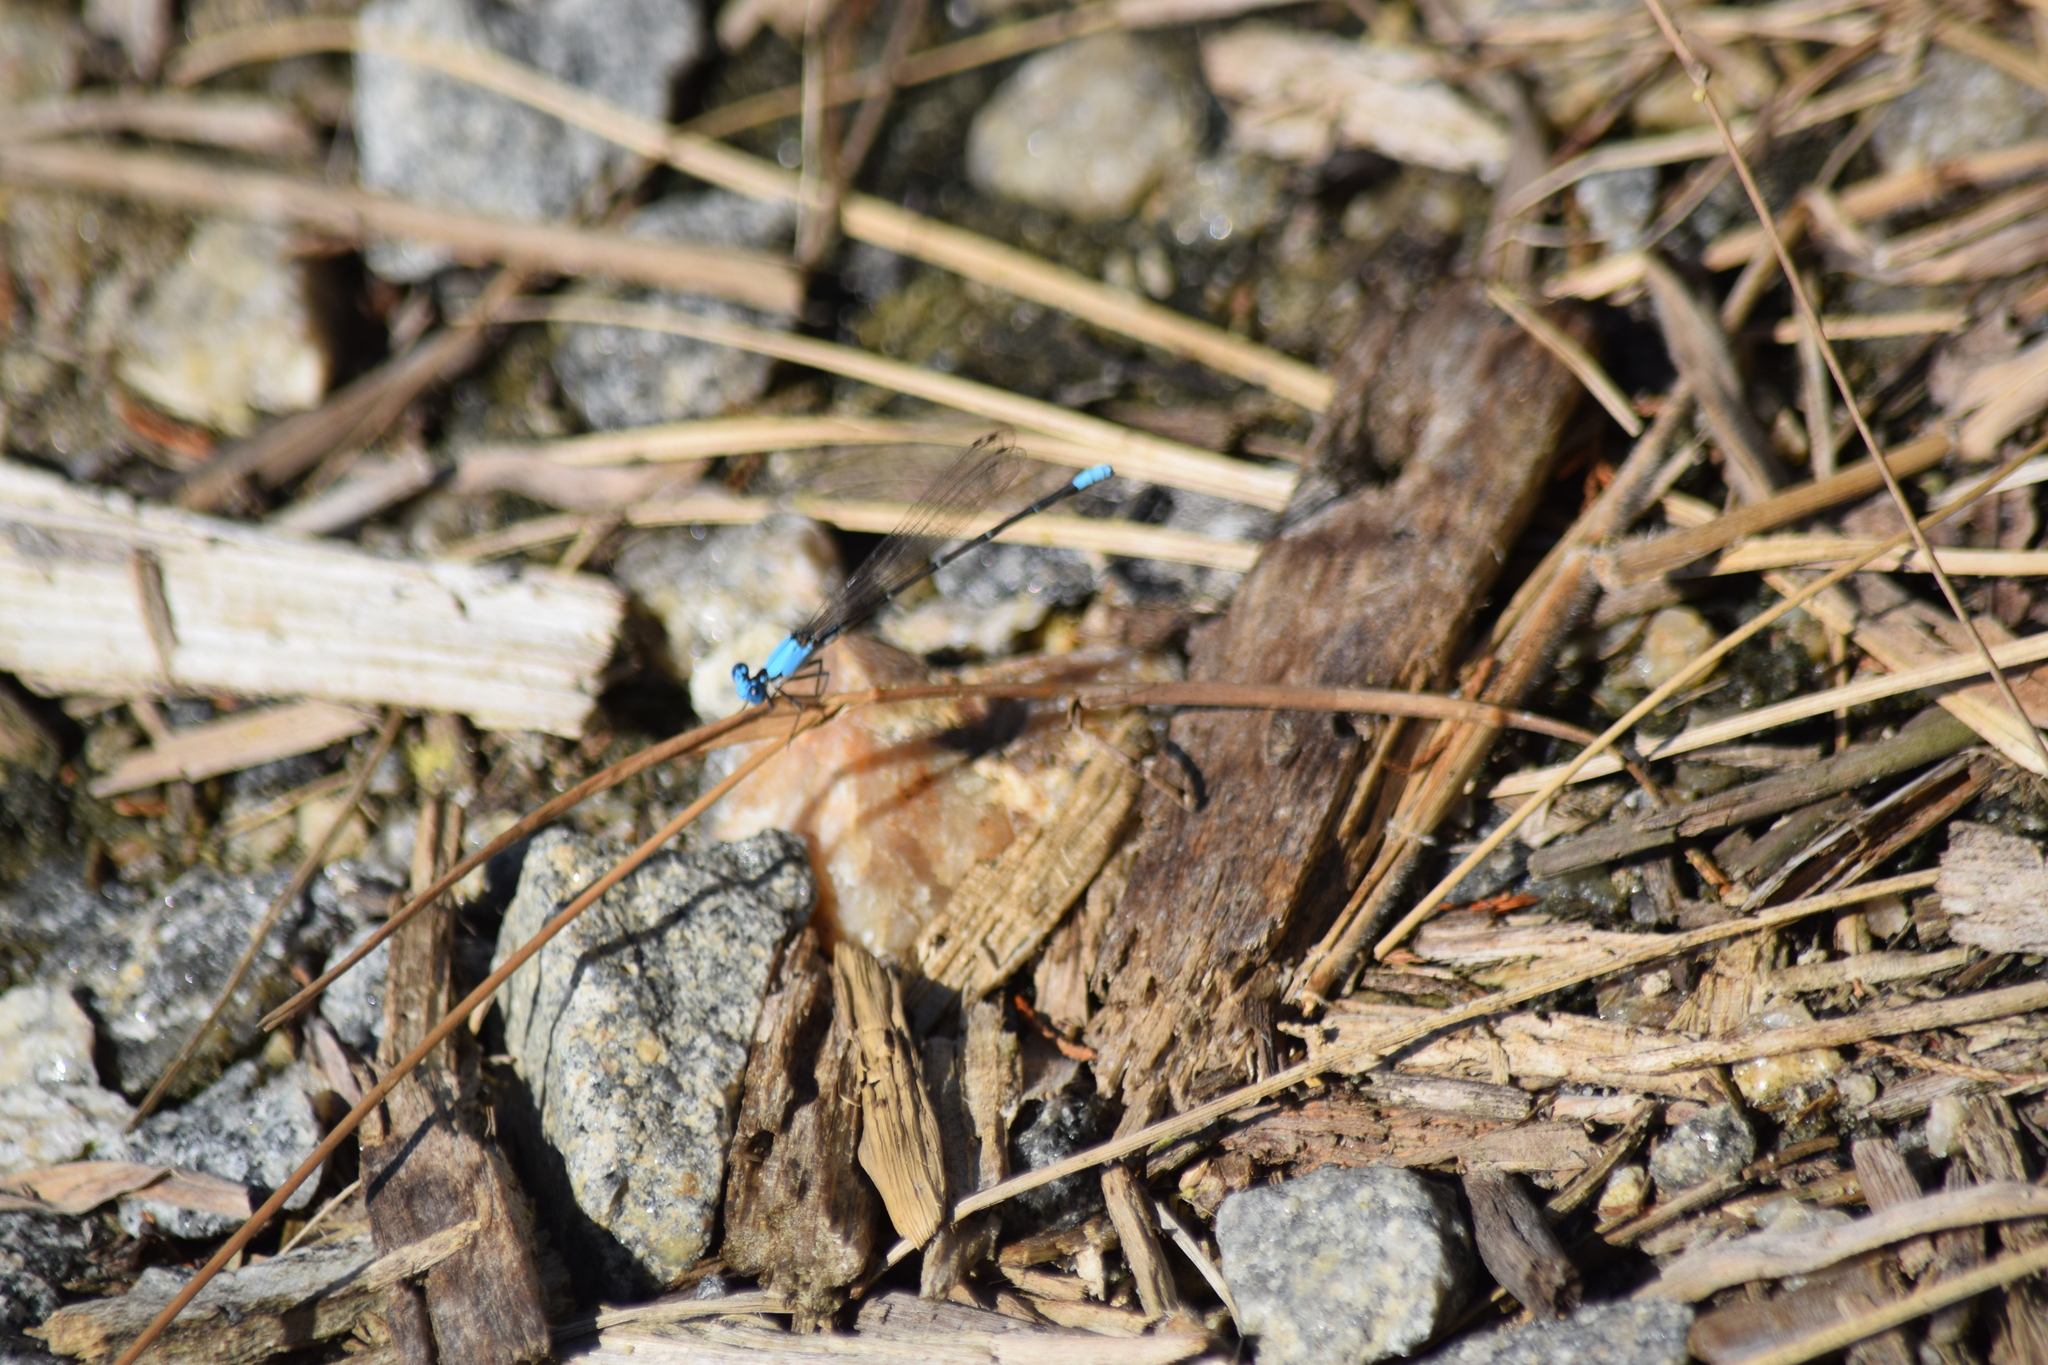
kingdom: Animalia
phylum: Arthropoda
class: Insecta
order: Odonata
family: Coenagrionidae
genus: Argia
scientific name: Argia apicalis
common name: Blue-fronted dancer
